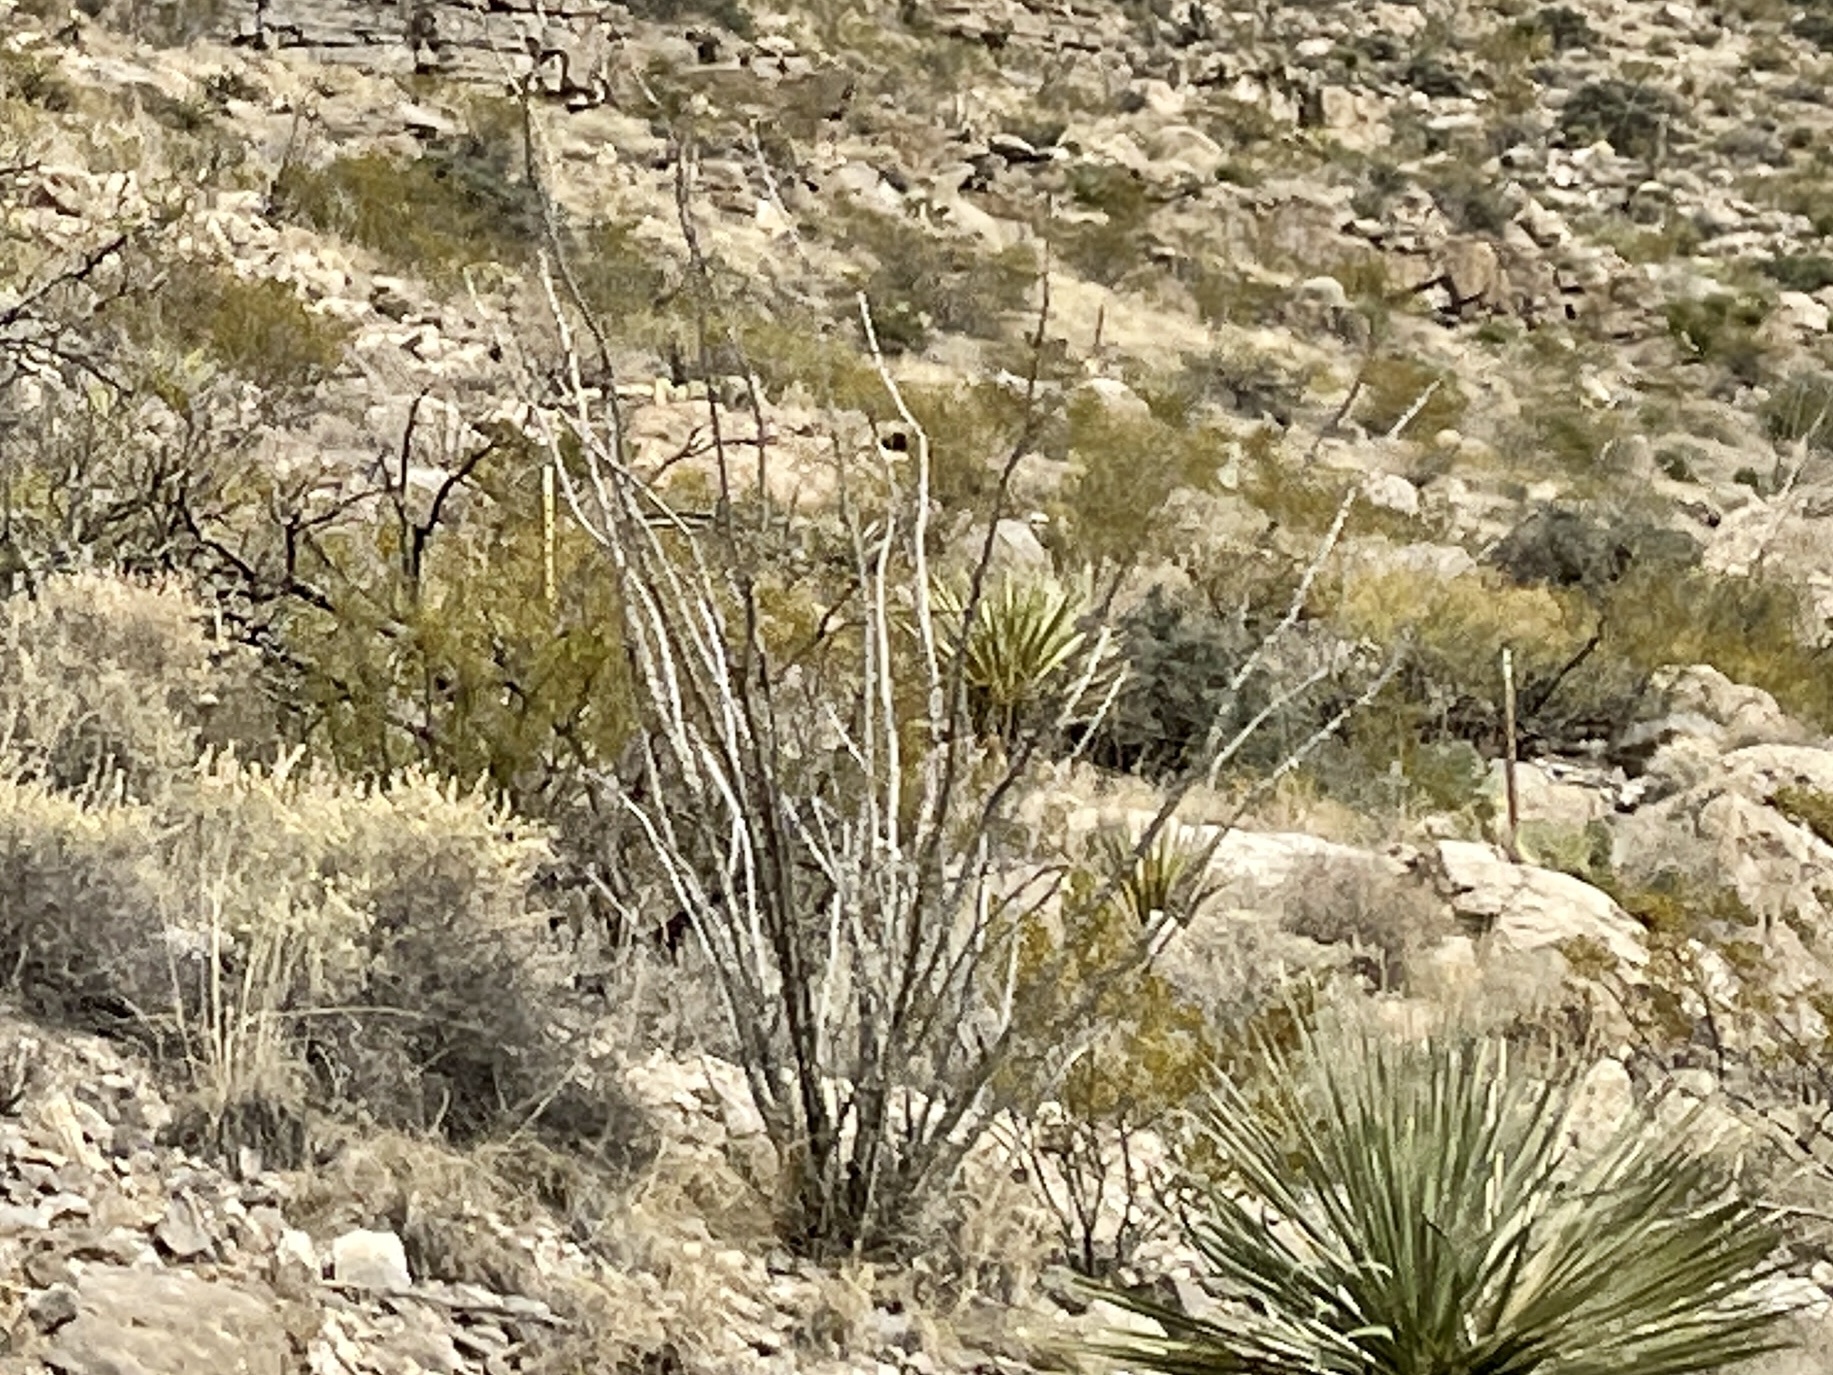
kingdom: Plantae
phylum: Tracheophyta
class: Magnoliopsida
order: Ericales
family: Fouquieriaceae
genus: Fouquieria
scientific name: Fouquieria splendens
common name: Vine-cactus
